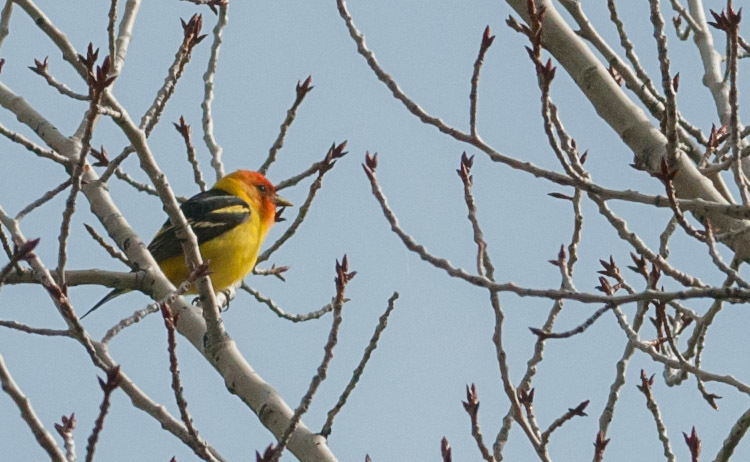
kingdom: Animalia
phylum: Chordata
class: Aves
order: Passeriformes
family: Cardinalidae
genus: Piranga
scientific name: Piranga ludoviciana
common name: Western tanager
